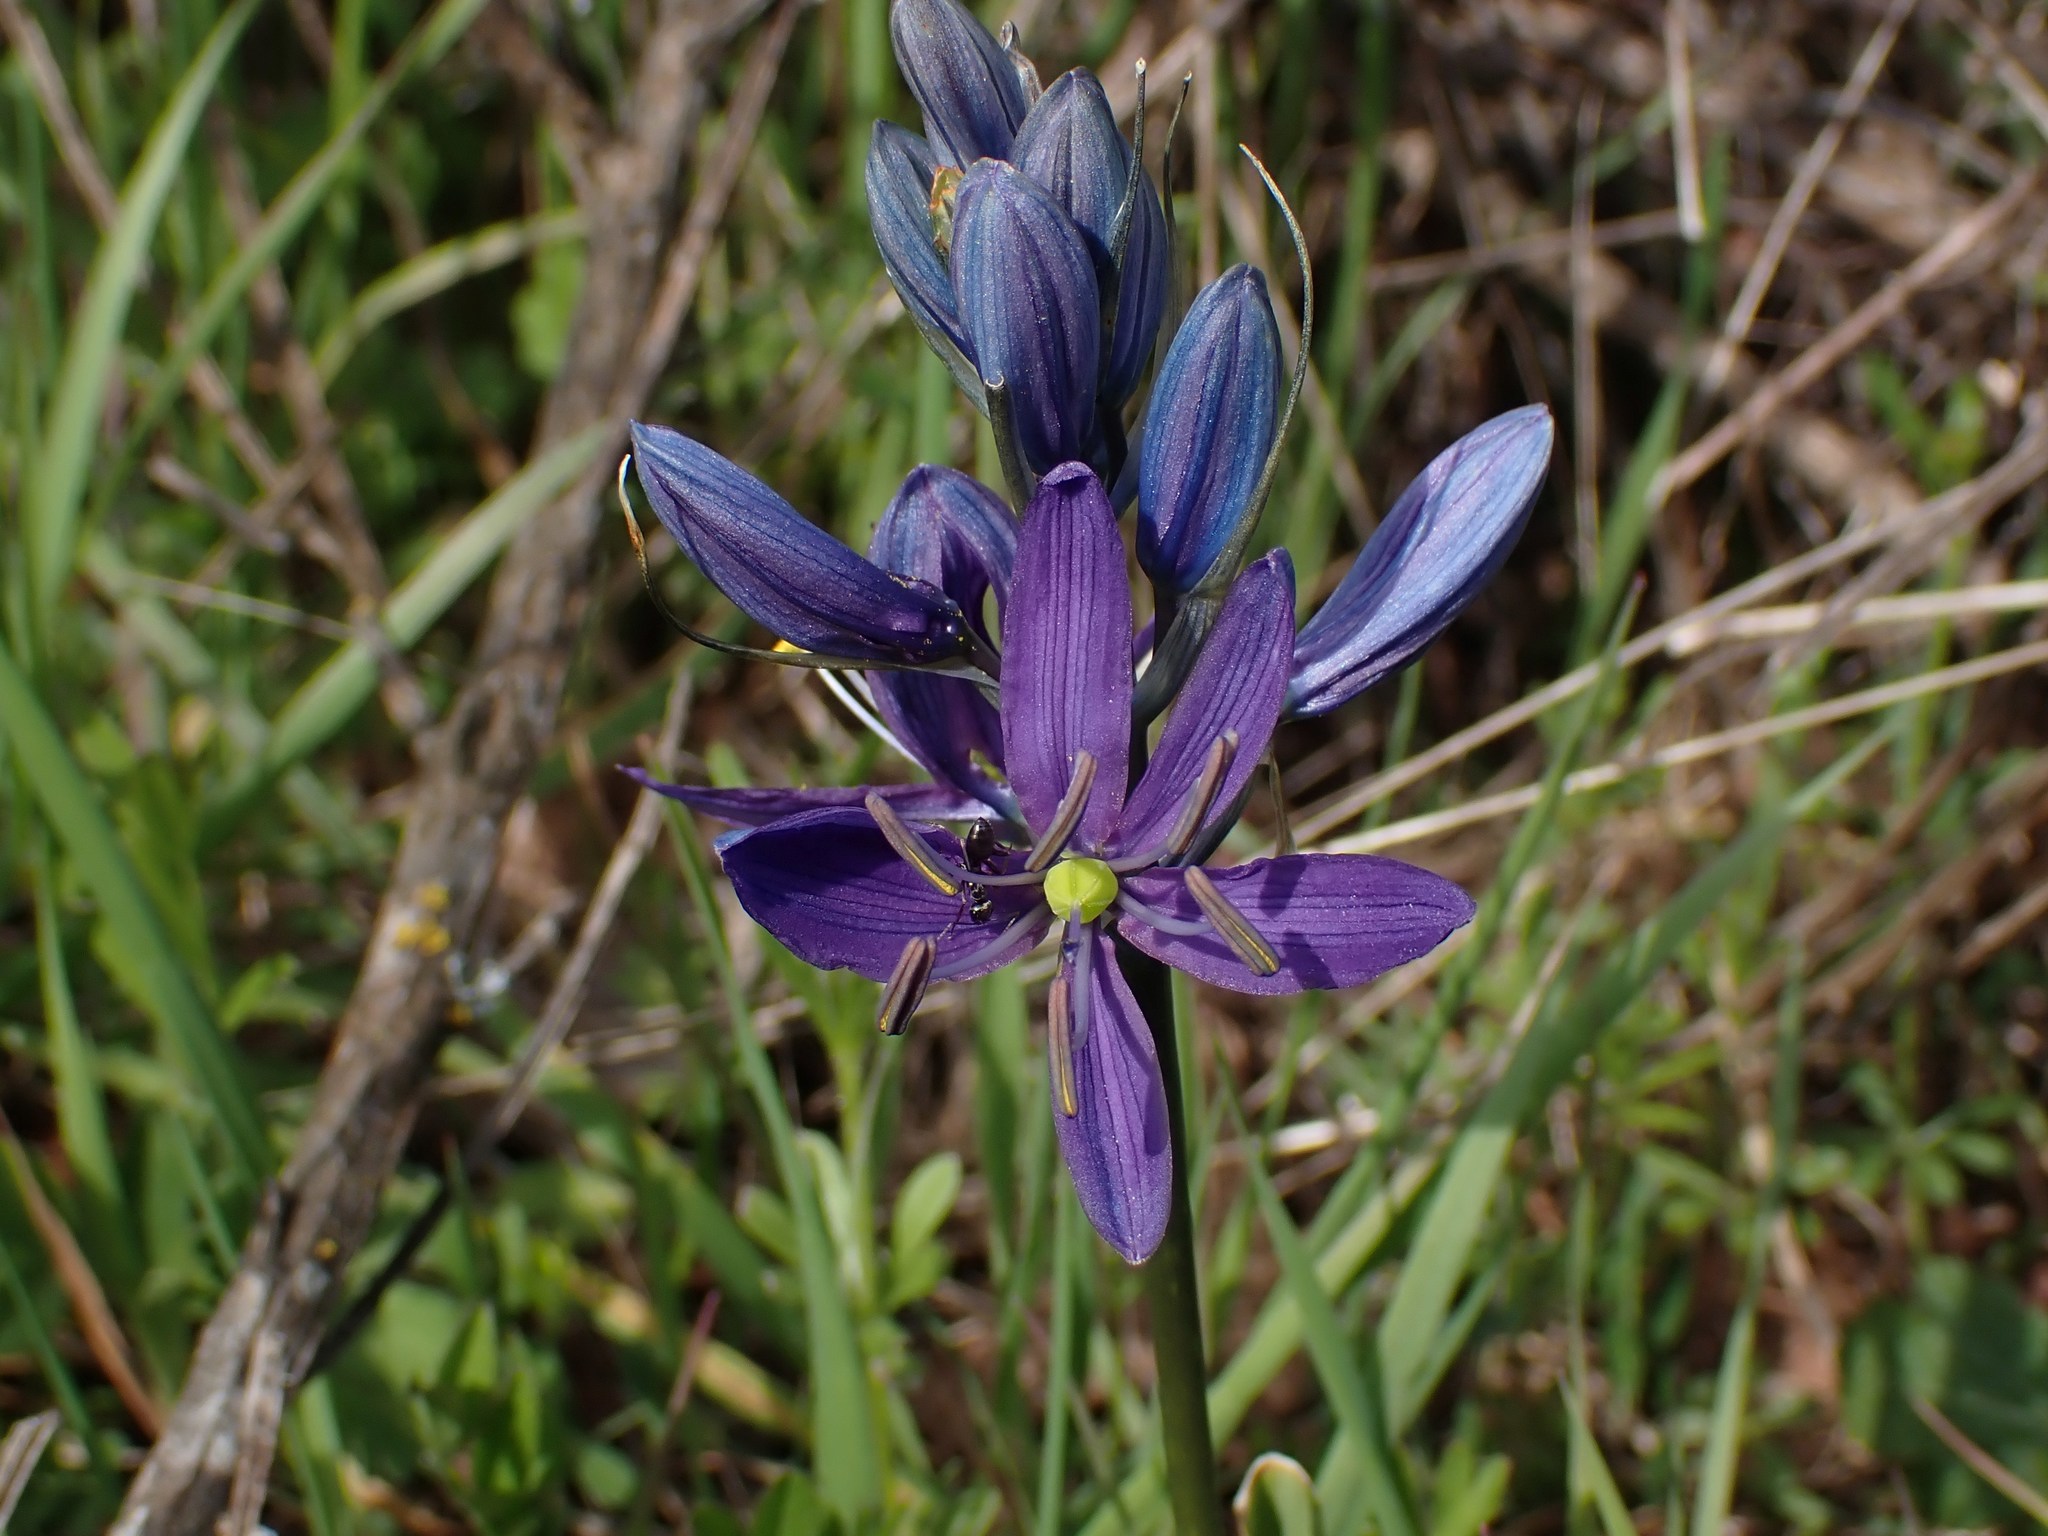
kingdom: Plantae
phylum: Tracheophyta
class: Liliopsida
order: Asparagales
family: Asparagaceae
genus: Camassia
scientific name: Camassia quamash
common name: Common camas
